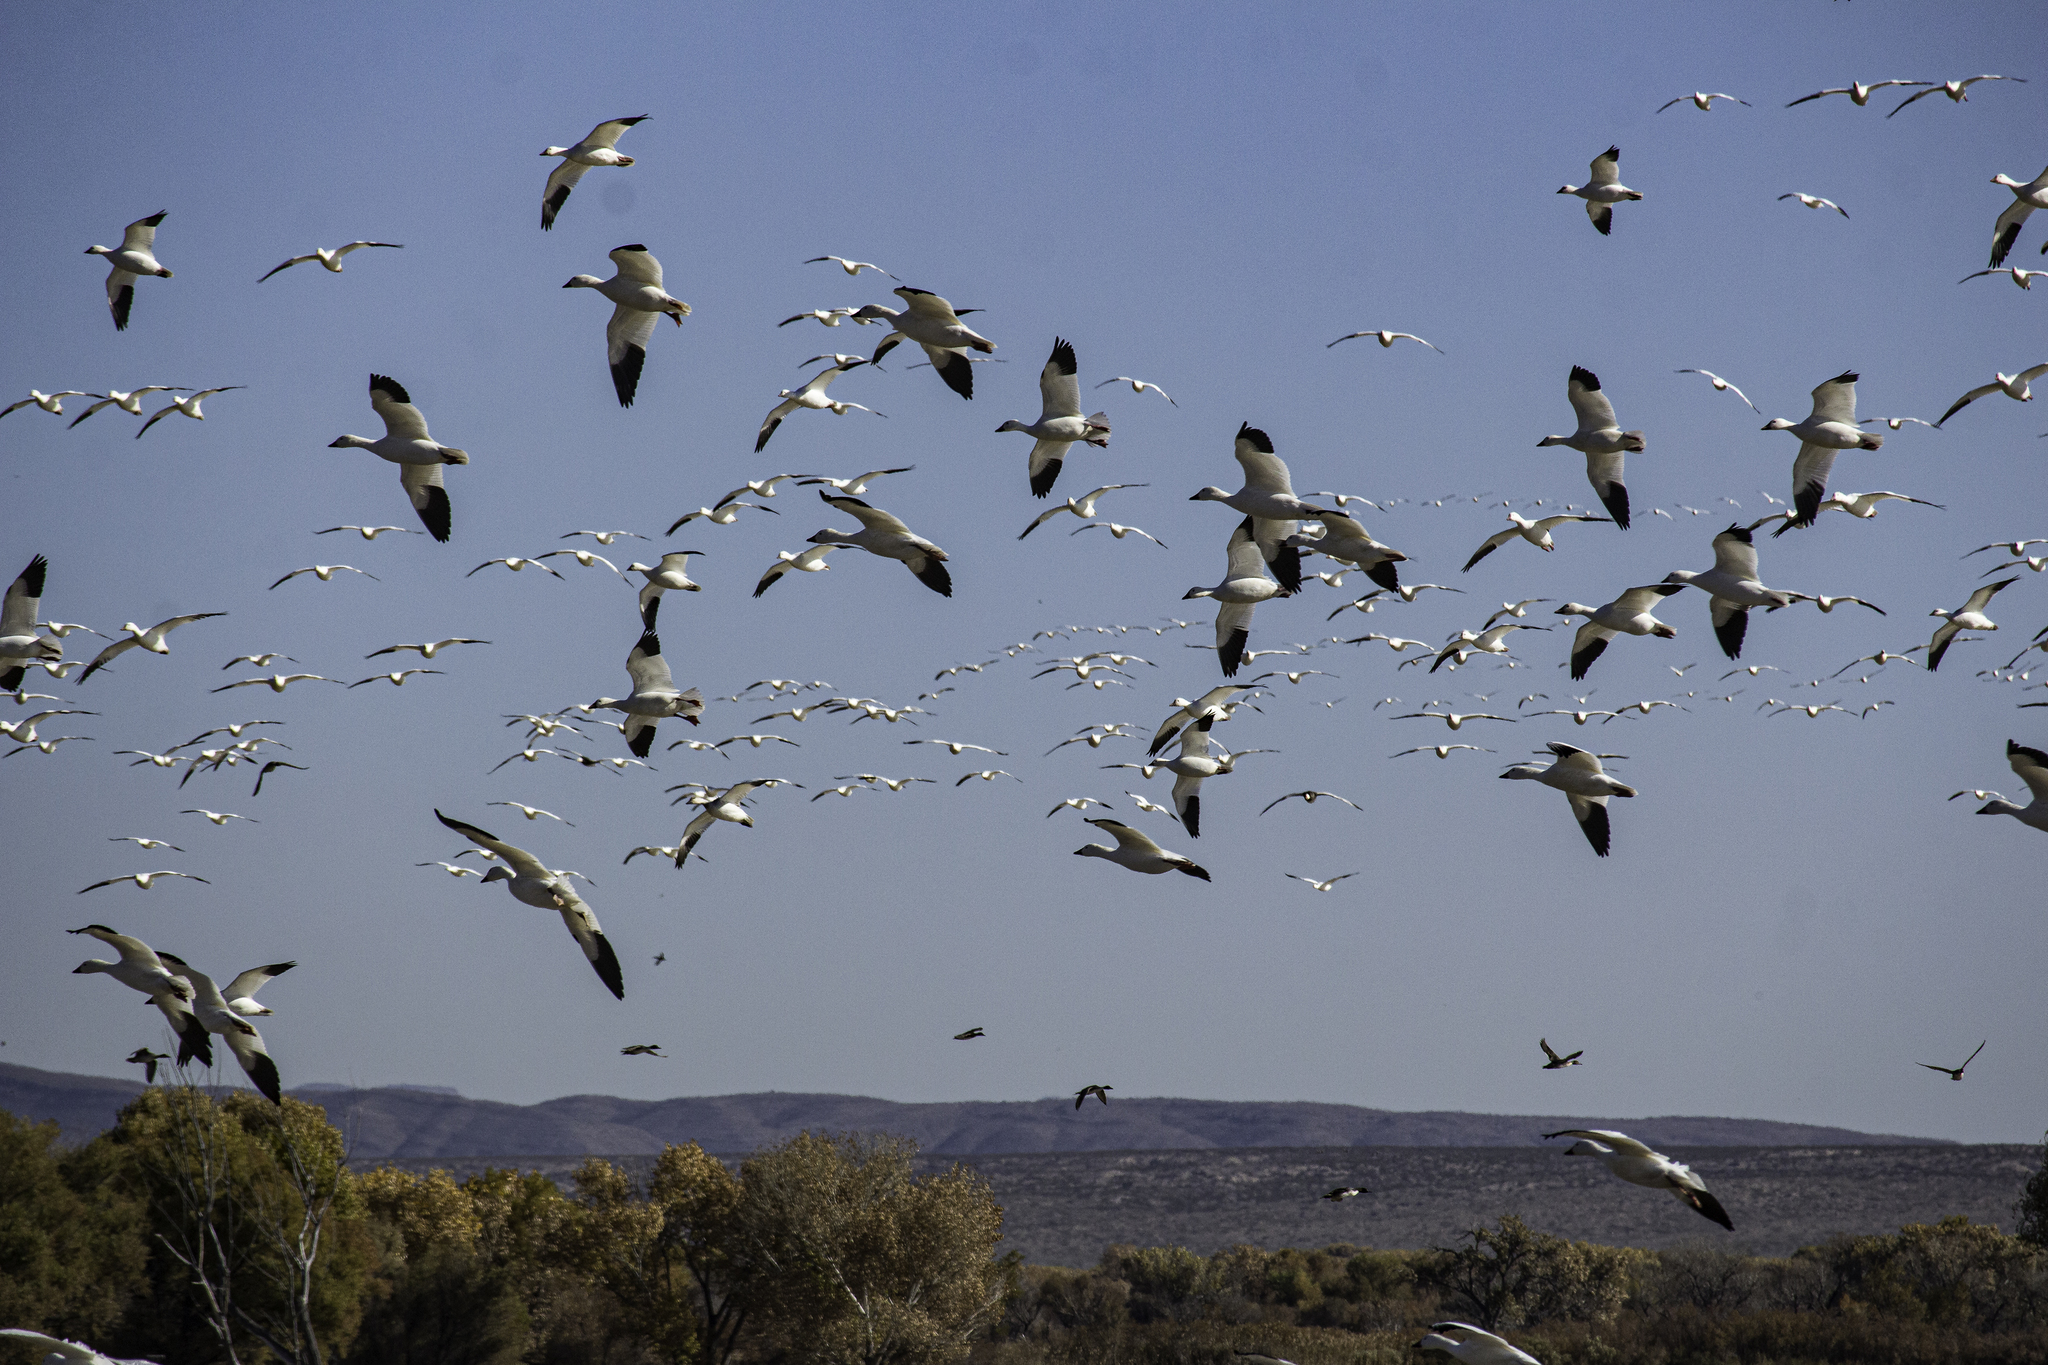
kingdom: Animalia
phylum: Chordata
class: Aves
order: Anseriformes
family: Anatidae
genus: Anser
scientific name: Anser caerulescens
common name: Snow goose
